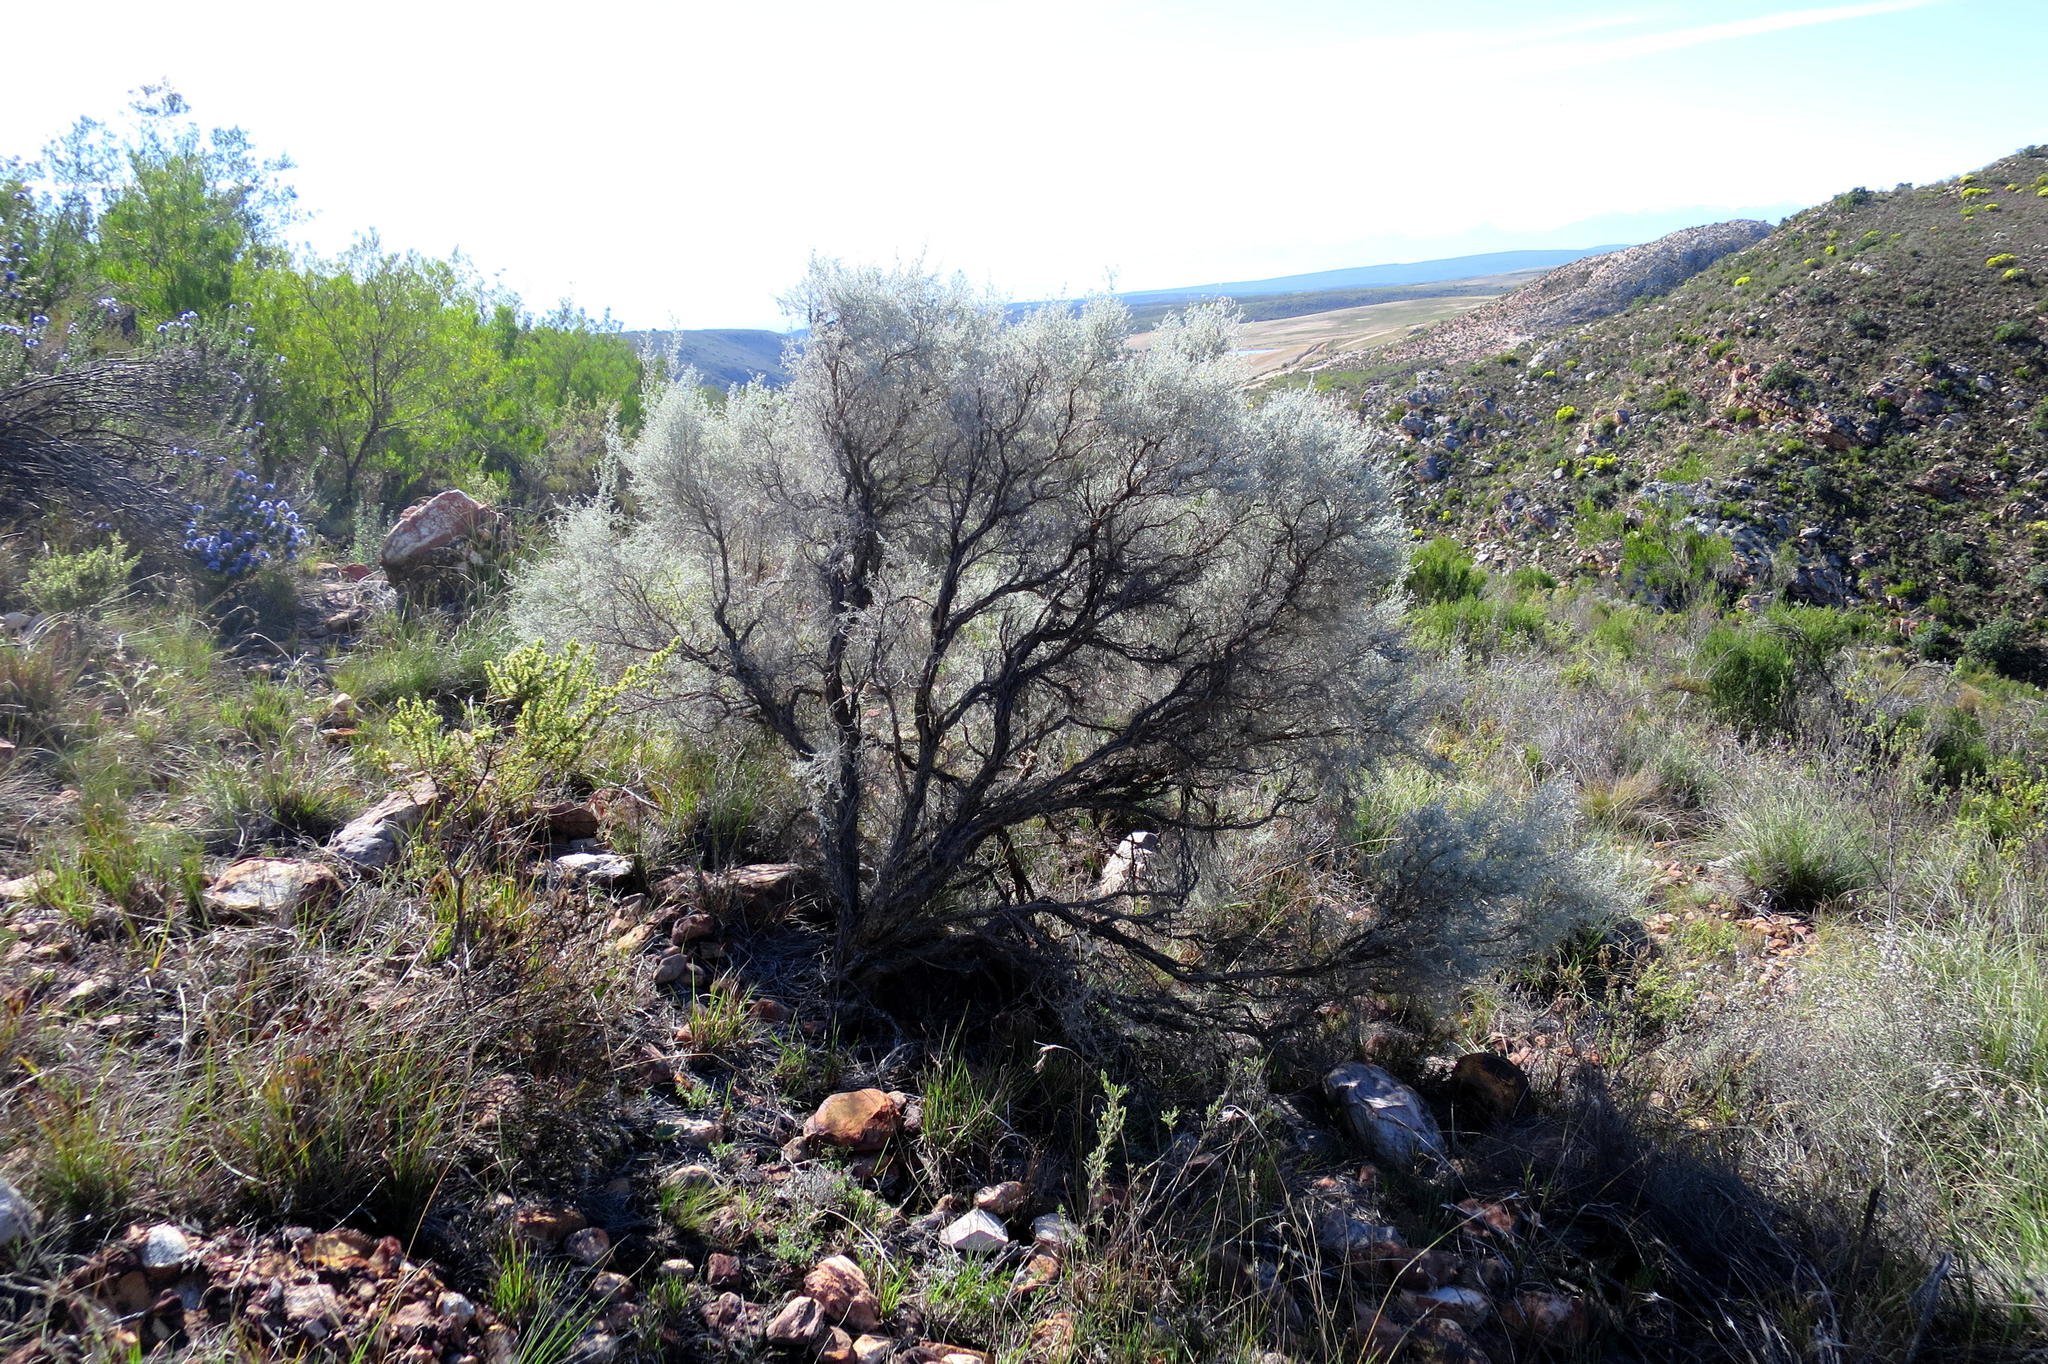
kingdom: Plantae
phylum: Tracheophyta
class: Magnoliopsida
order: Fabales
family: Fabaceae
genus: Aspalathus
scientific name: Aspalathus pedunculata
